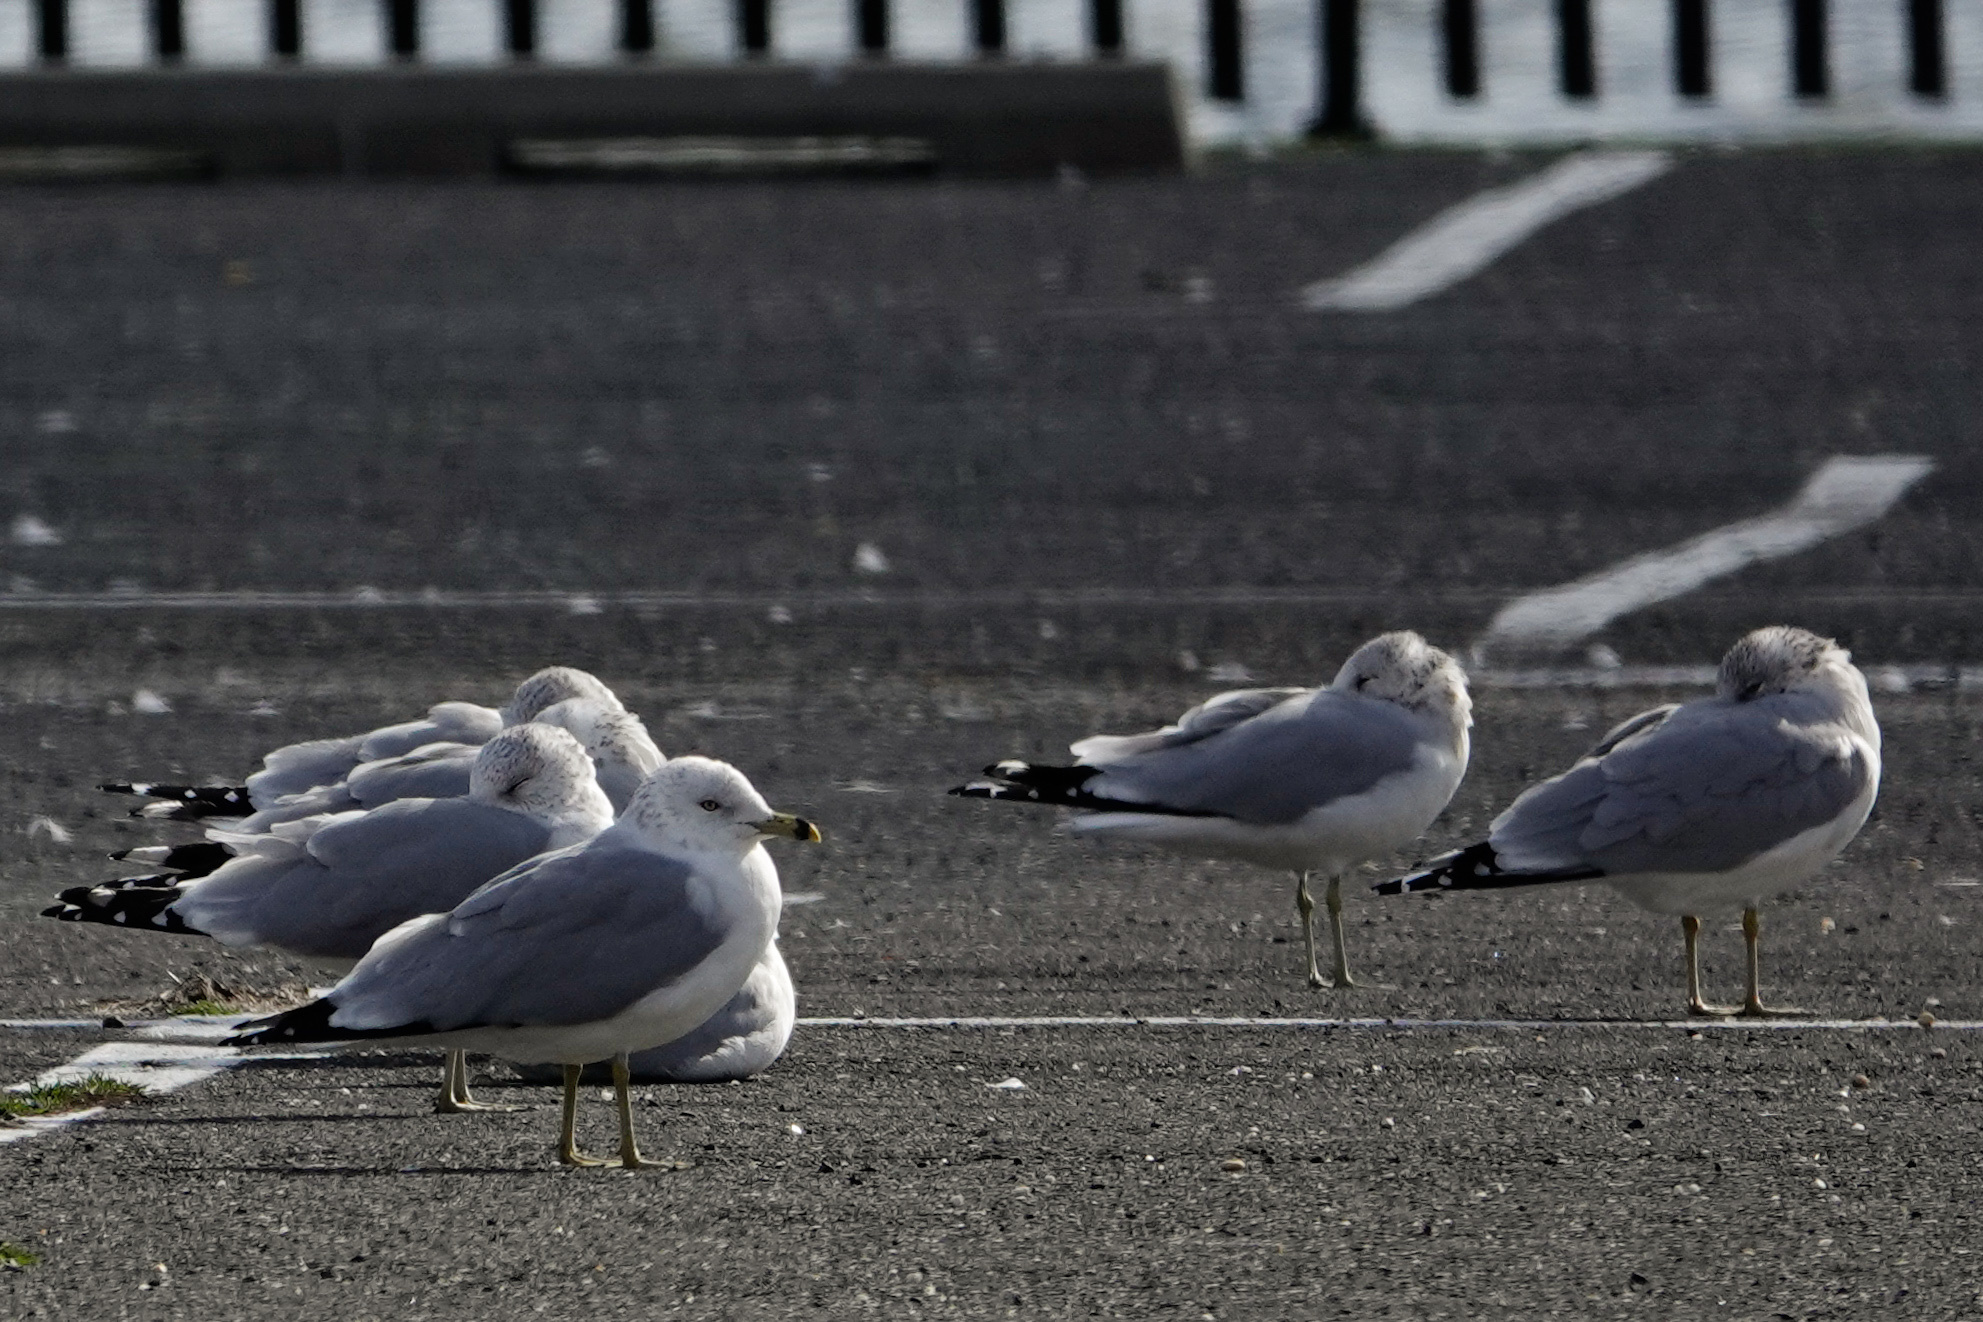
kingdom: Animalia
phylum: Chordata
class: Aves
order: Charadriiformes
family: Laridae
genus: Larus
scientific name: Larus delawarensis
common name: Ring-billed gull
